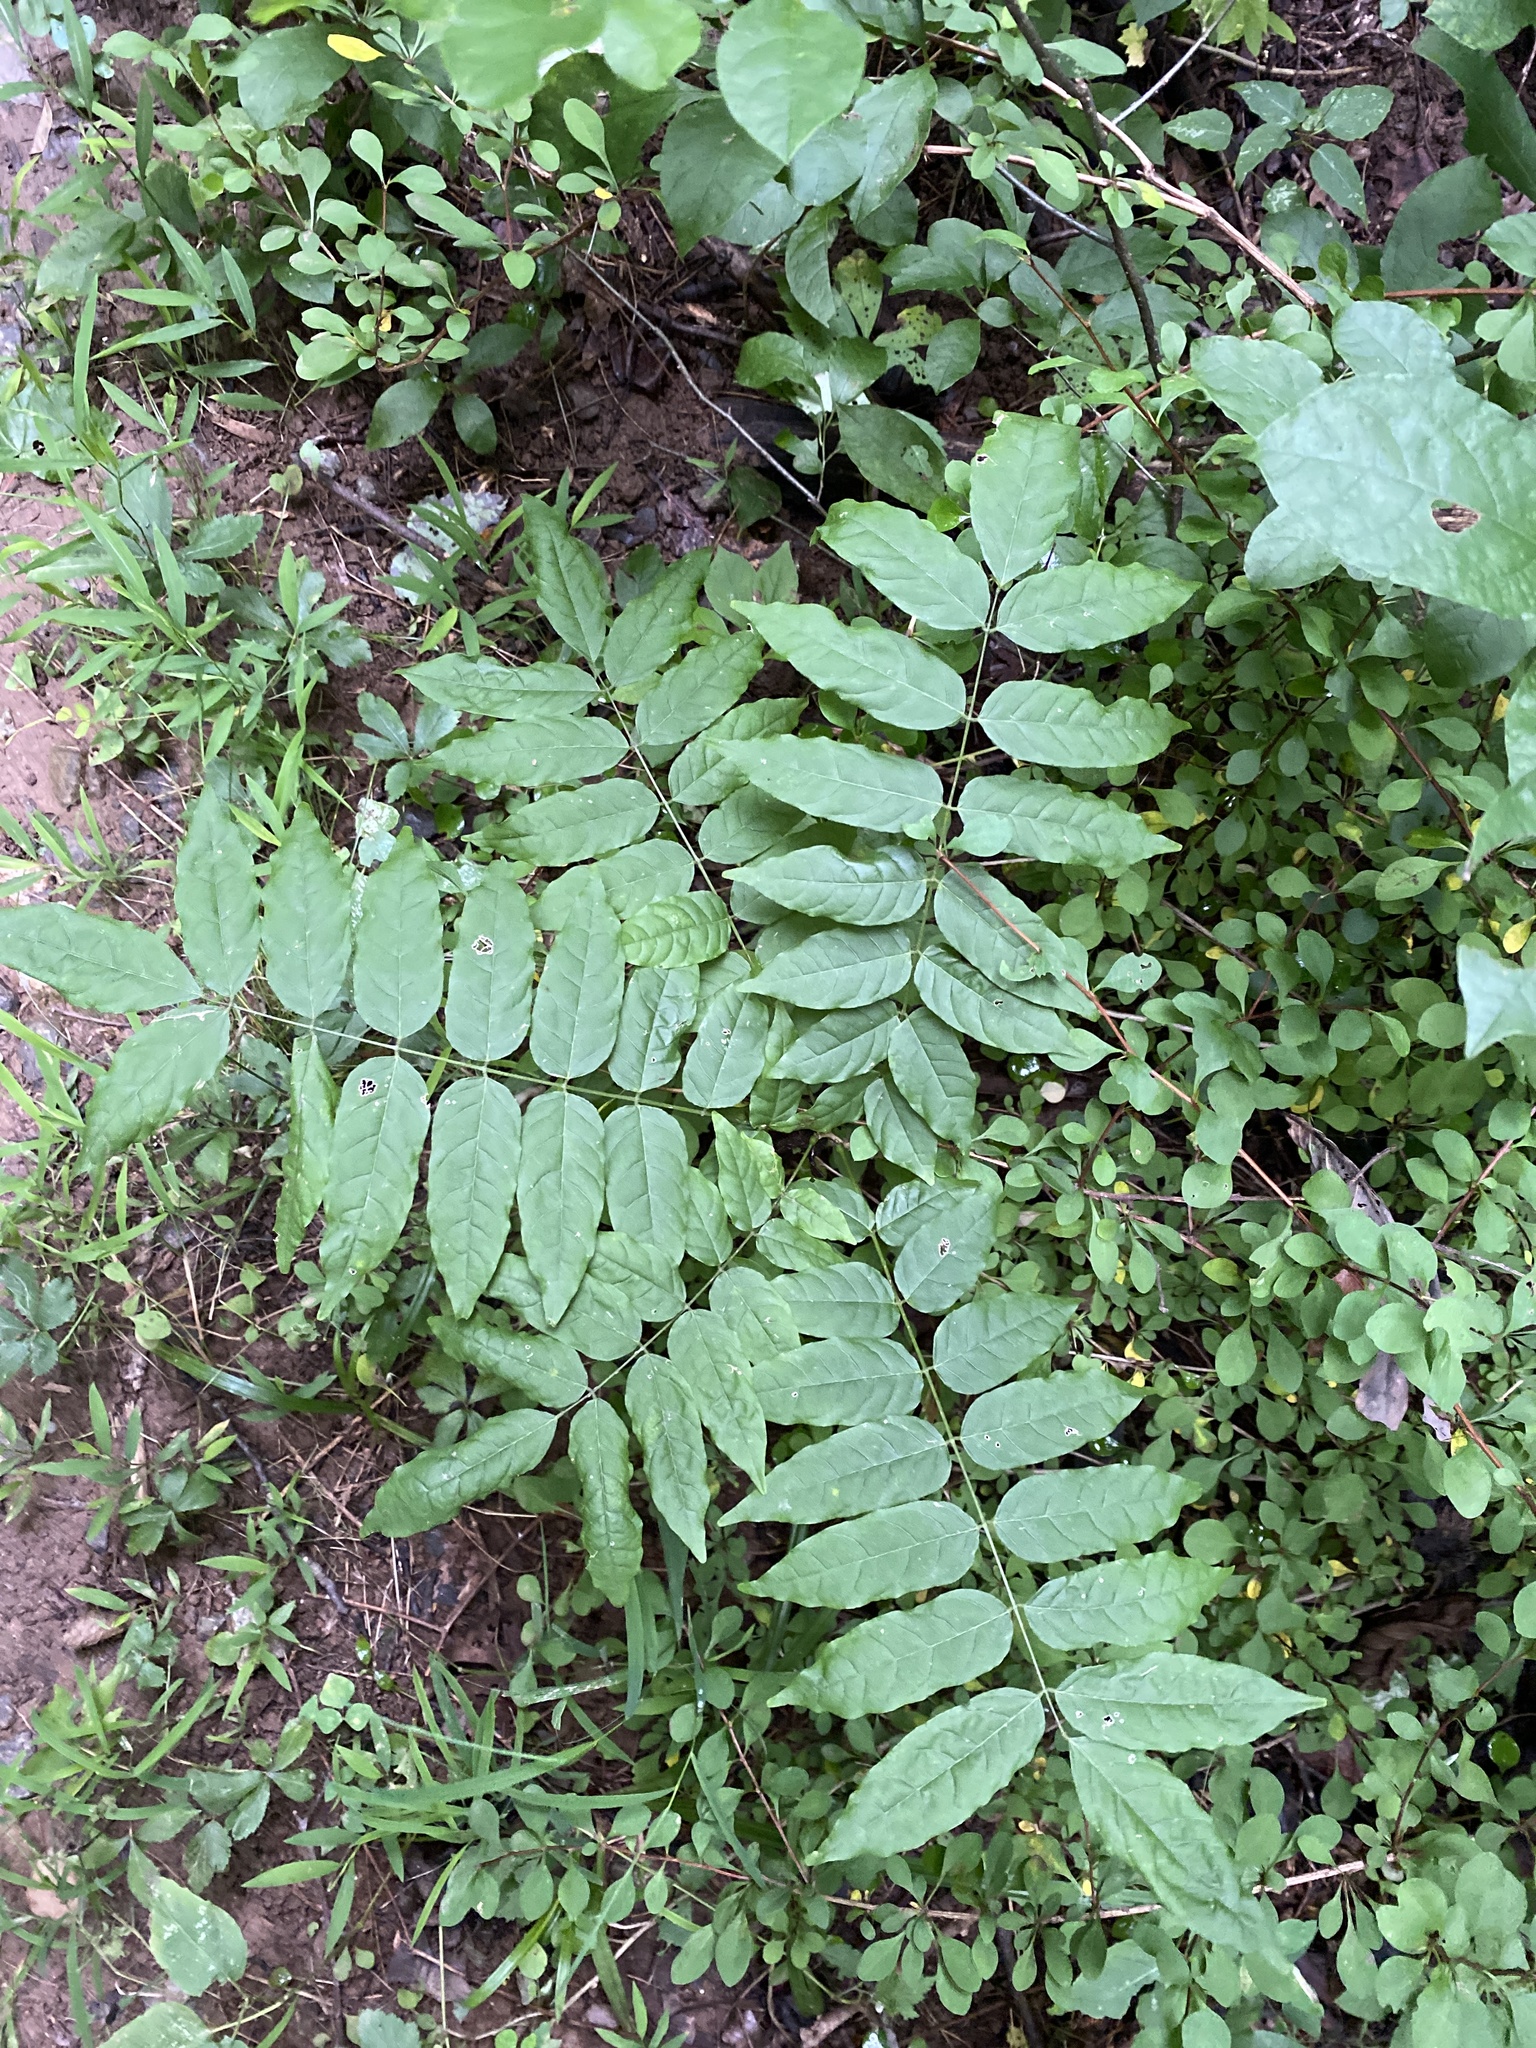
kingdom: Plantae
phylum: Tracheophyta
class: Magnoliopsida
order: Fabales
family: Fabaceae
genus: Wisteria
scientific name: Wisteria floribunda
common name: Japanese wisteria
